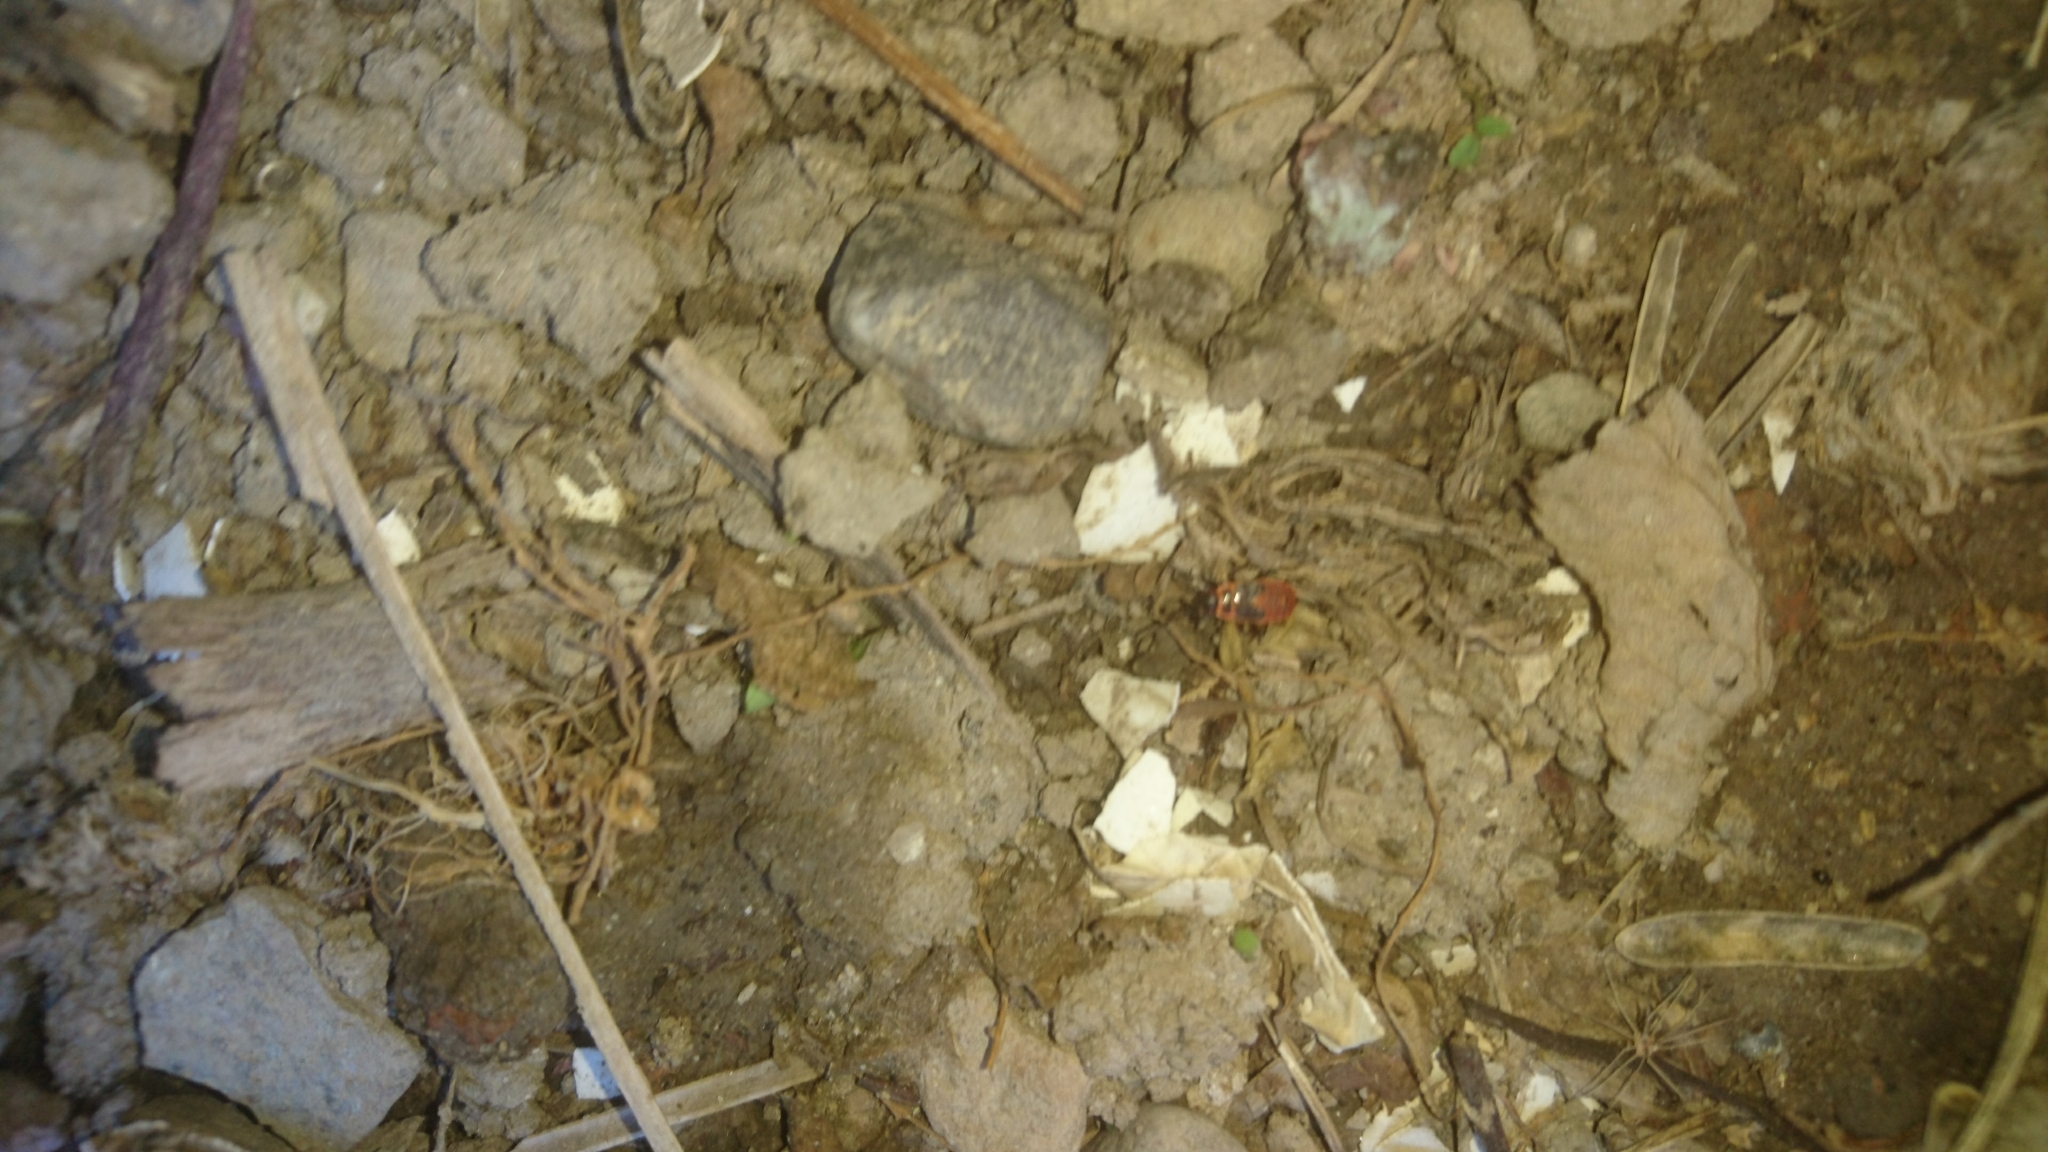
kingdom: Animalia
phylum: Arthropoda
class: Insecta
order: Hemiptera
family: Pyrrhocoridae
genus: Pyrrhocoris
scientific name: Pyrrhocoris apterus
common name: Firebug
